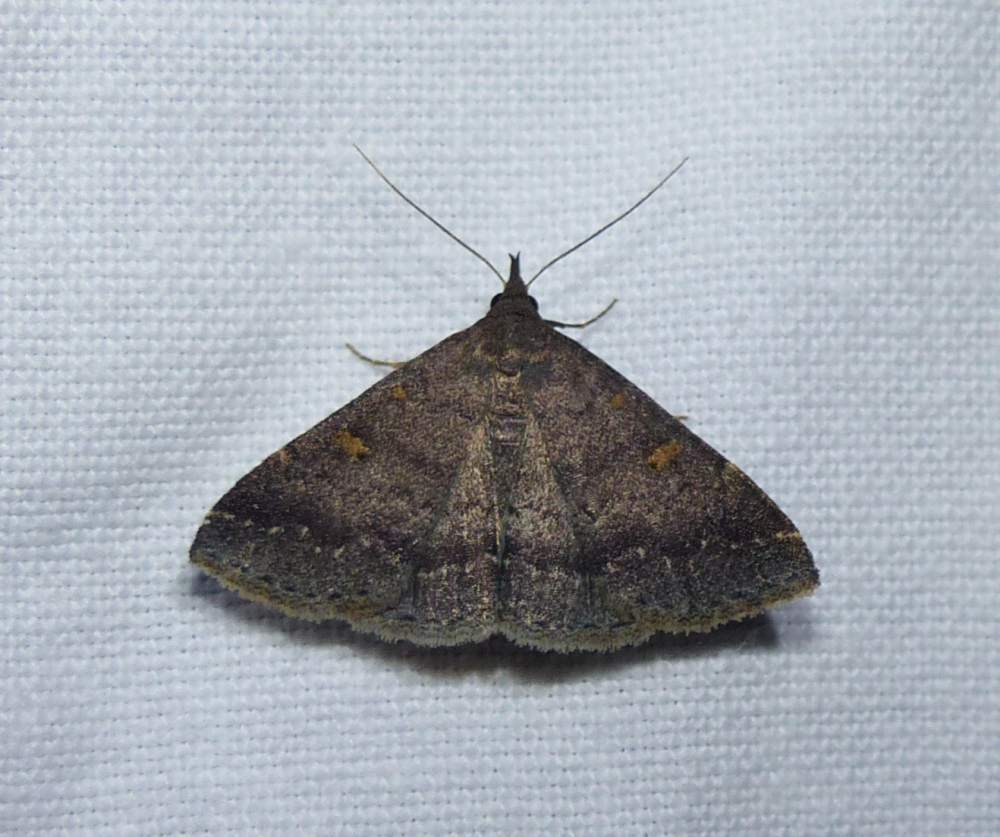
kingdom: Animalia
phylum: Arthropoda
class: Insecta
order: Lepidoptera
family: Erebidae
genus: Renia
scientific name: Renia sobrialis
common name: Sober renia moth
